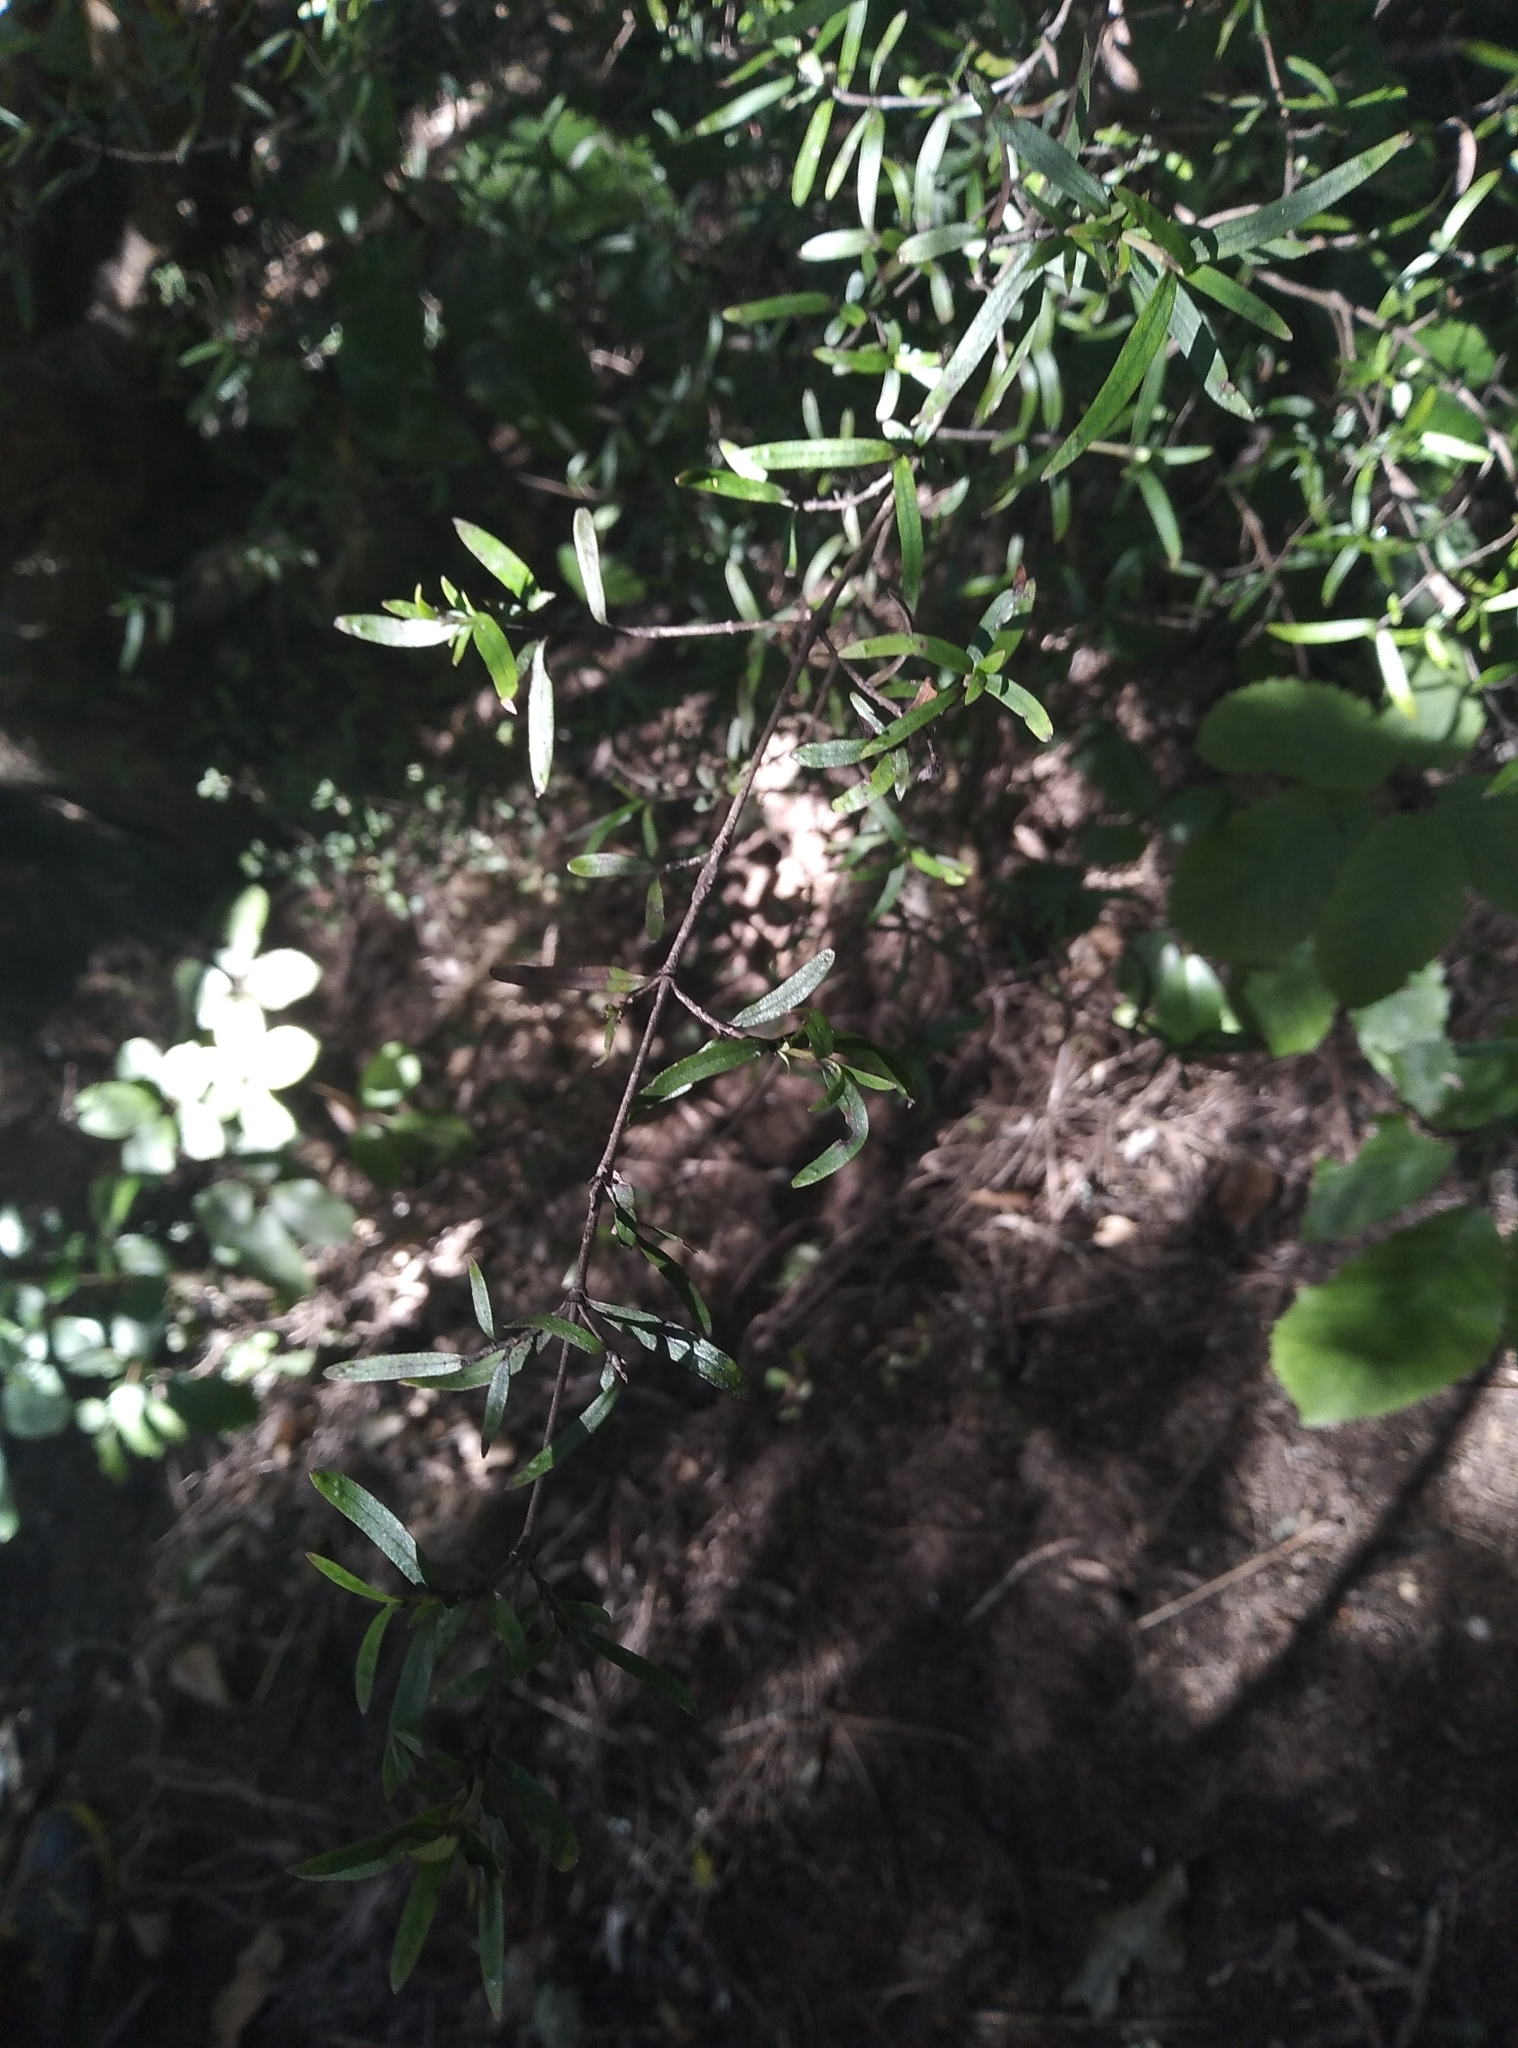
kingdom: Plantae
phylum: Tracheophyta
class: Magnoliopsida
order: Gentianales
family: Rubiaceae
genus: Coprosma
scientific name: Coprosma linariifolia
